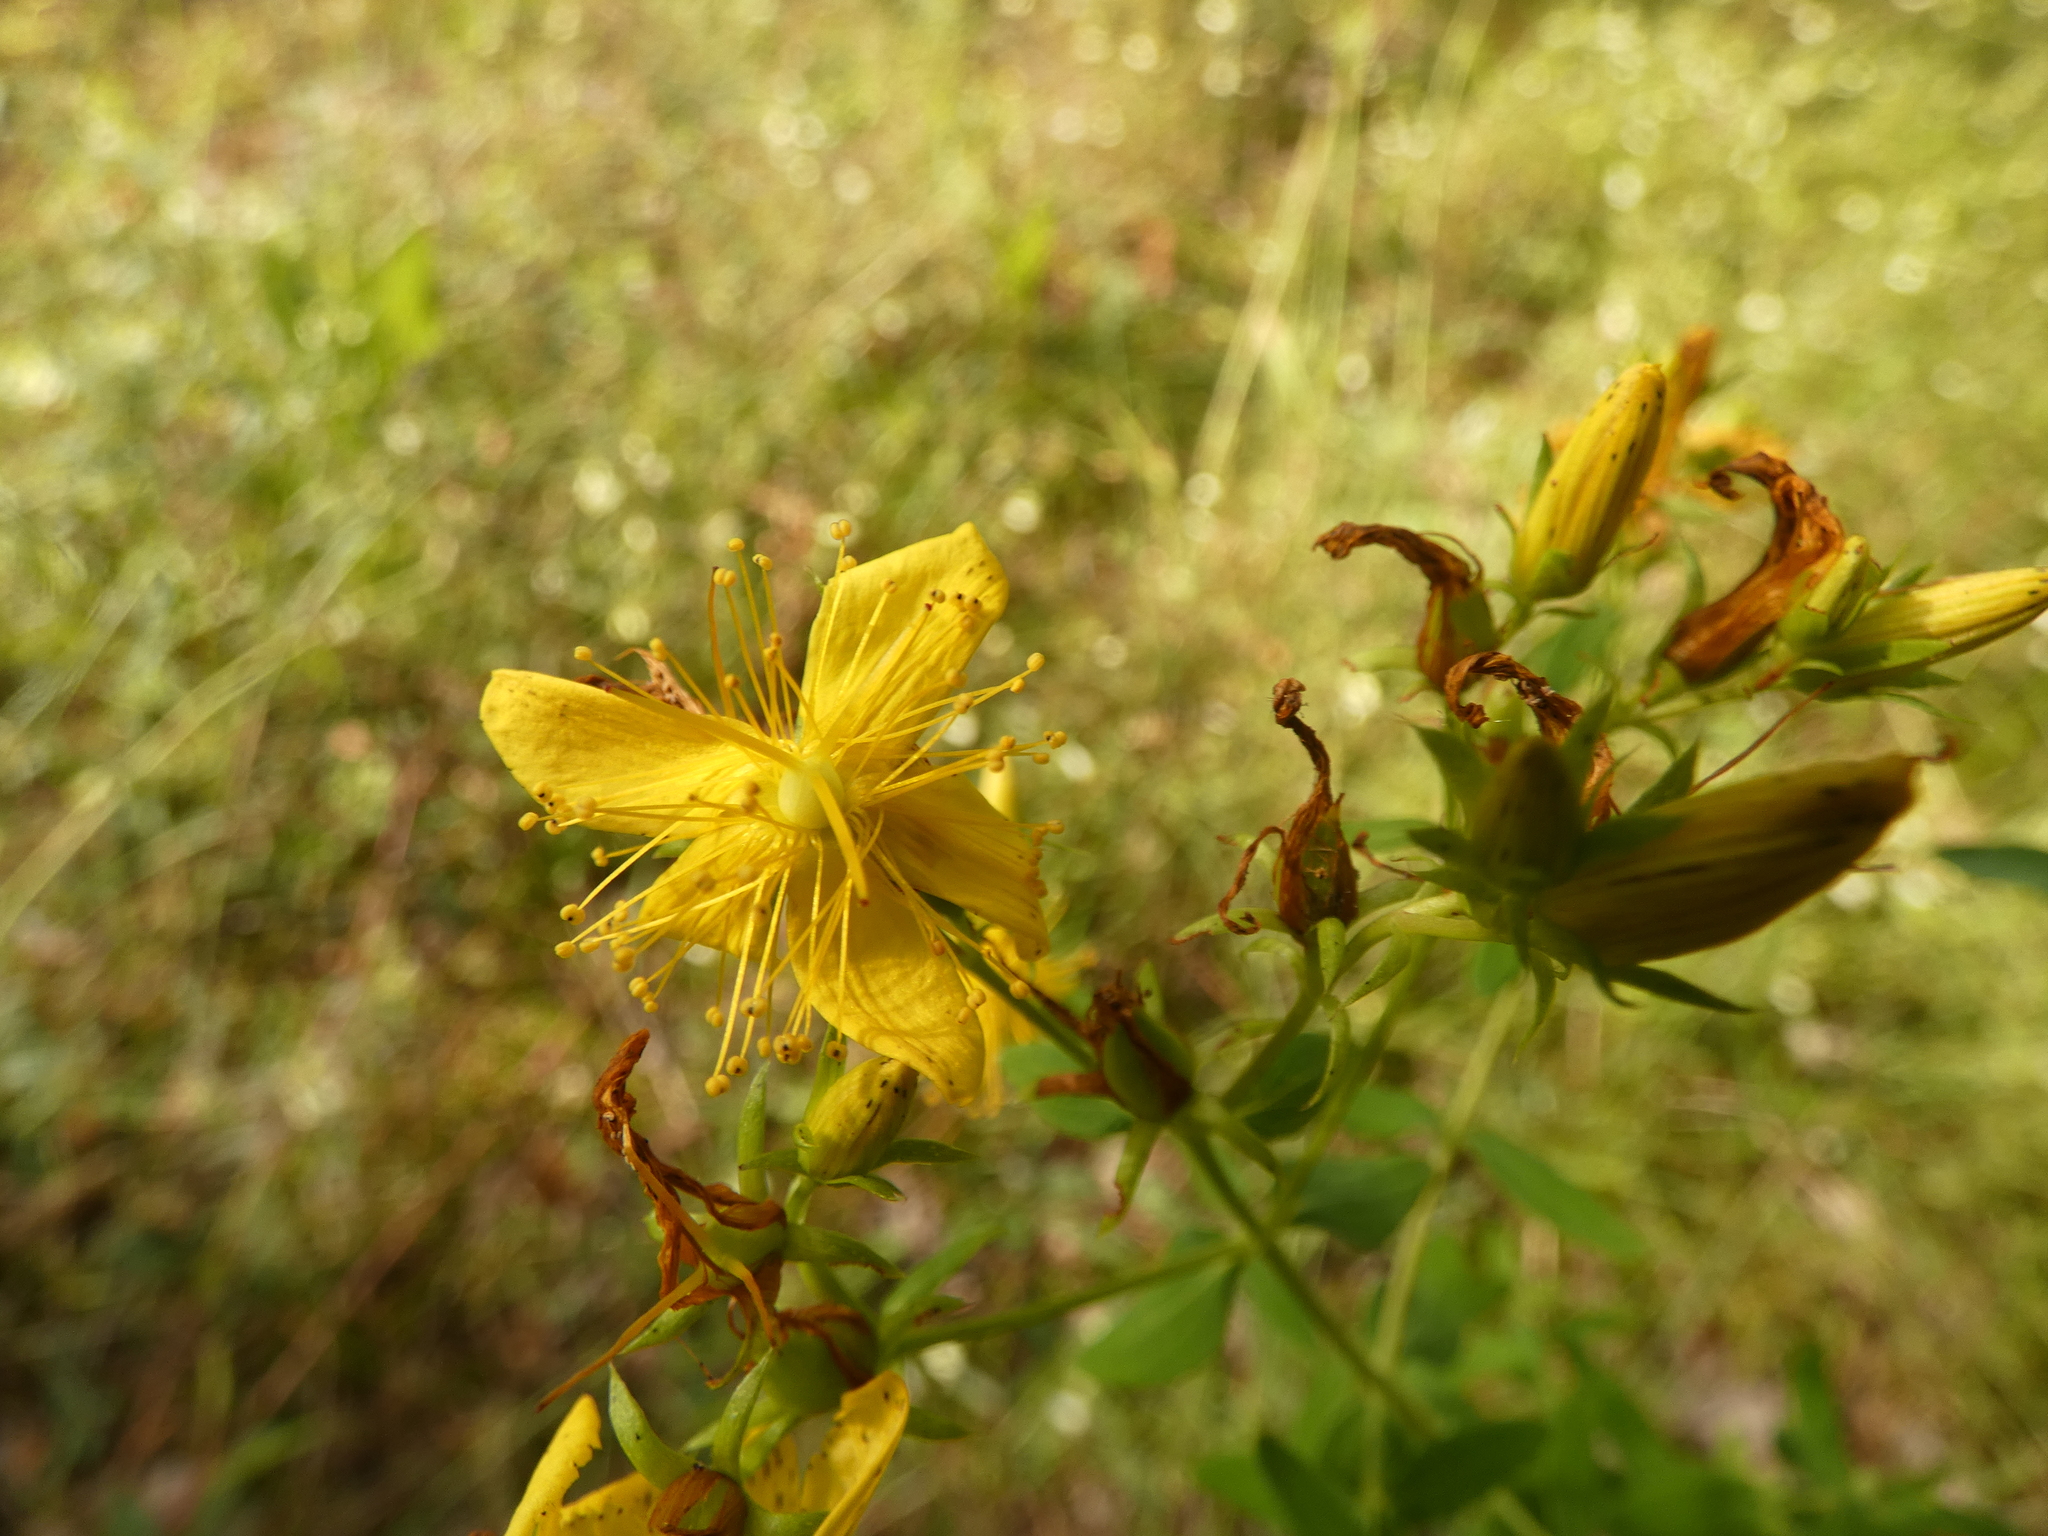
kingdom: Plantae
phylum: Tracheophyta
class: Magnoliopsida
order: Malpighiales
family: Hypericaceae
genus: Hypericum
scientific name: Hypericum perforatum
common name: Common st. johnswort
